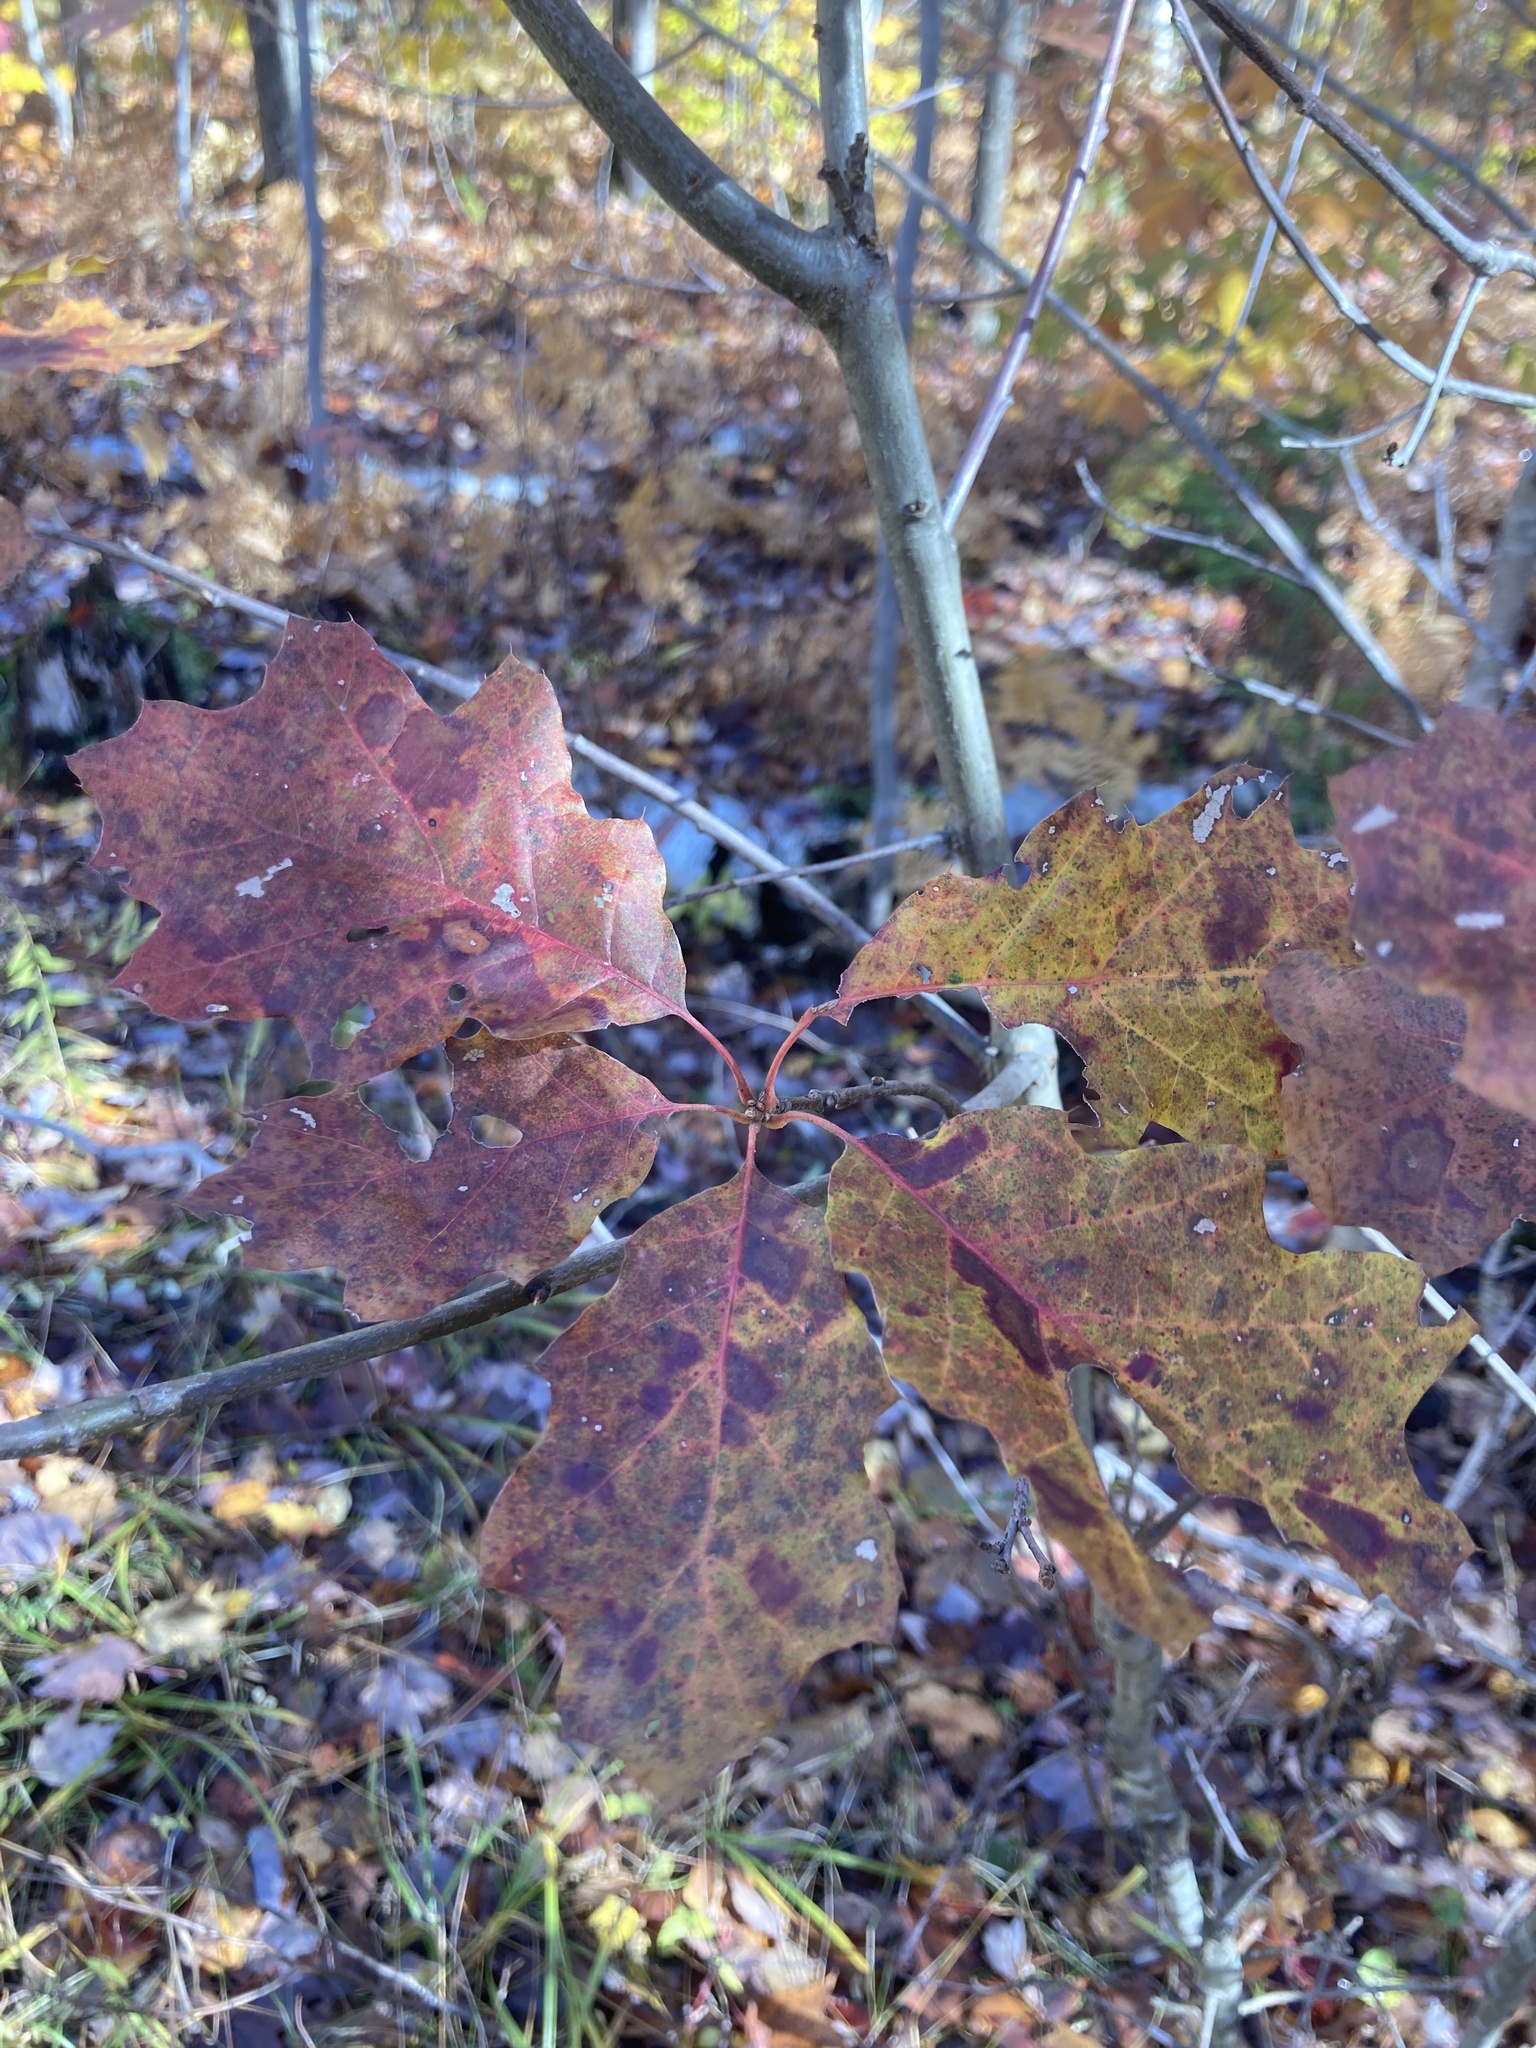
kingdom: Plantae
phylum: Tracheophyta
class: Magnoliopsida
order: Fagales
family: Fagaceae
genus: Quercus
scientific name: Quercus rubra
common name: Red oak
